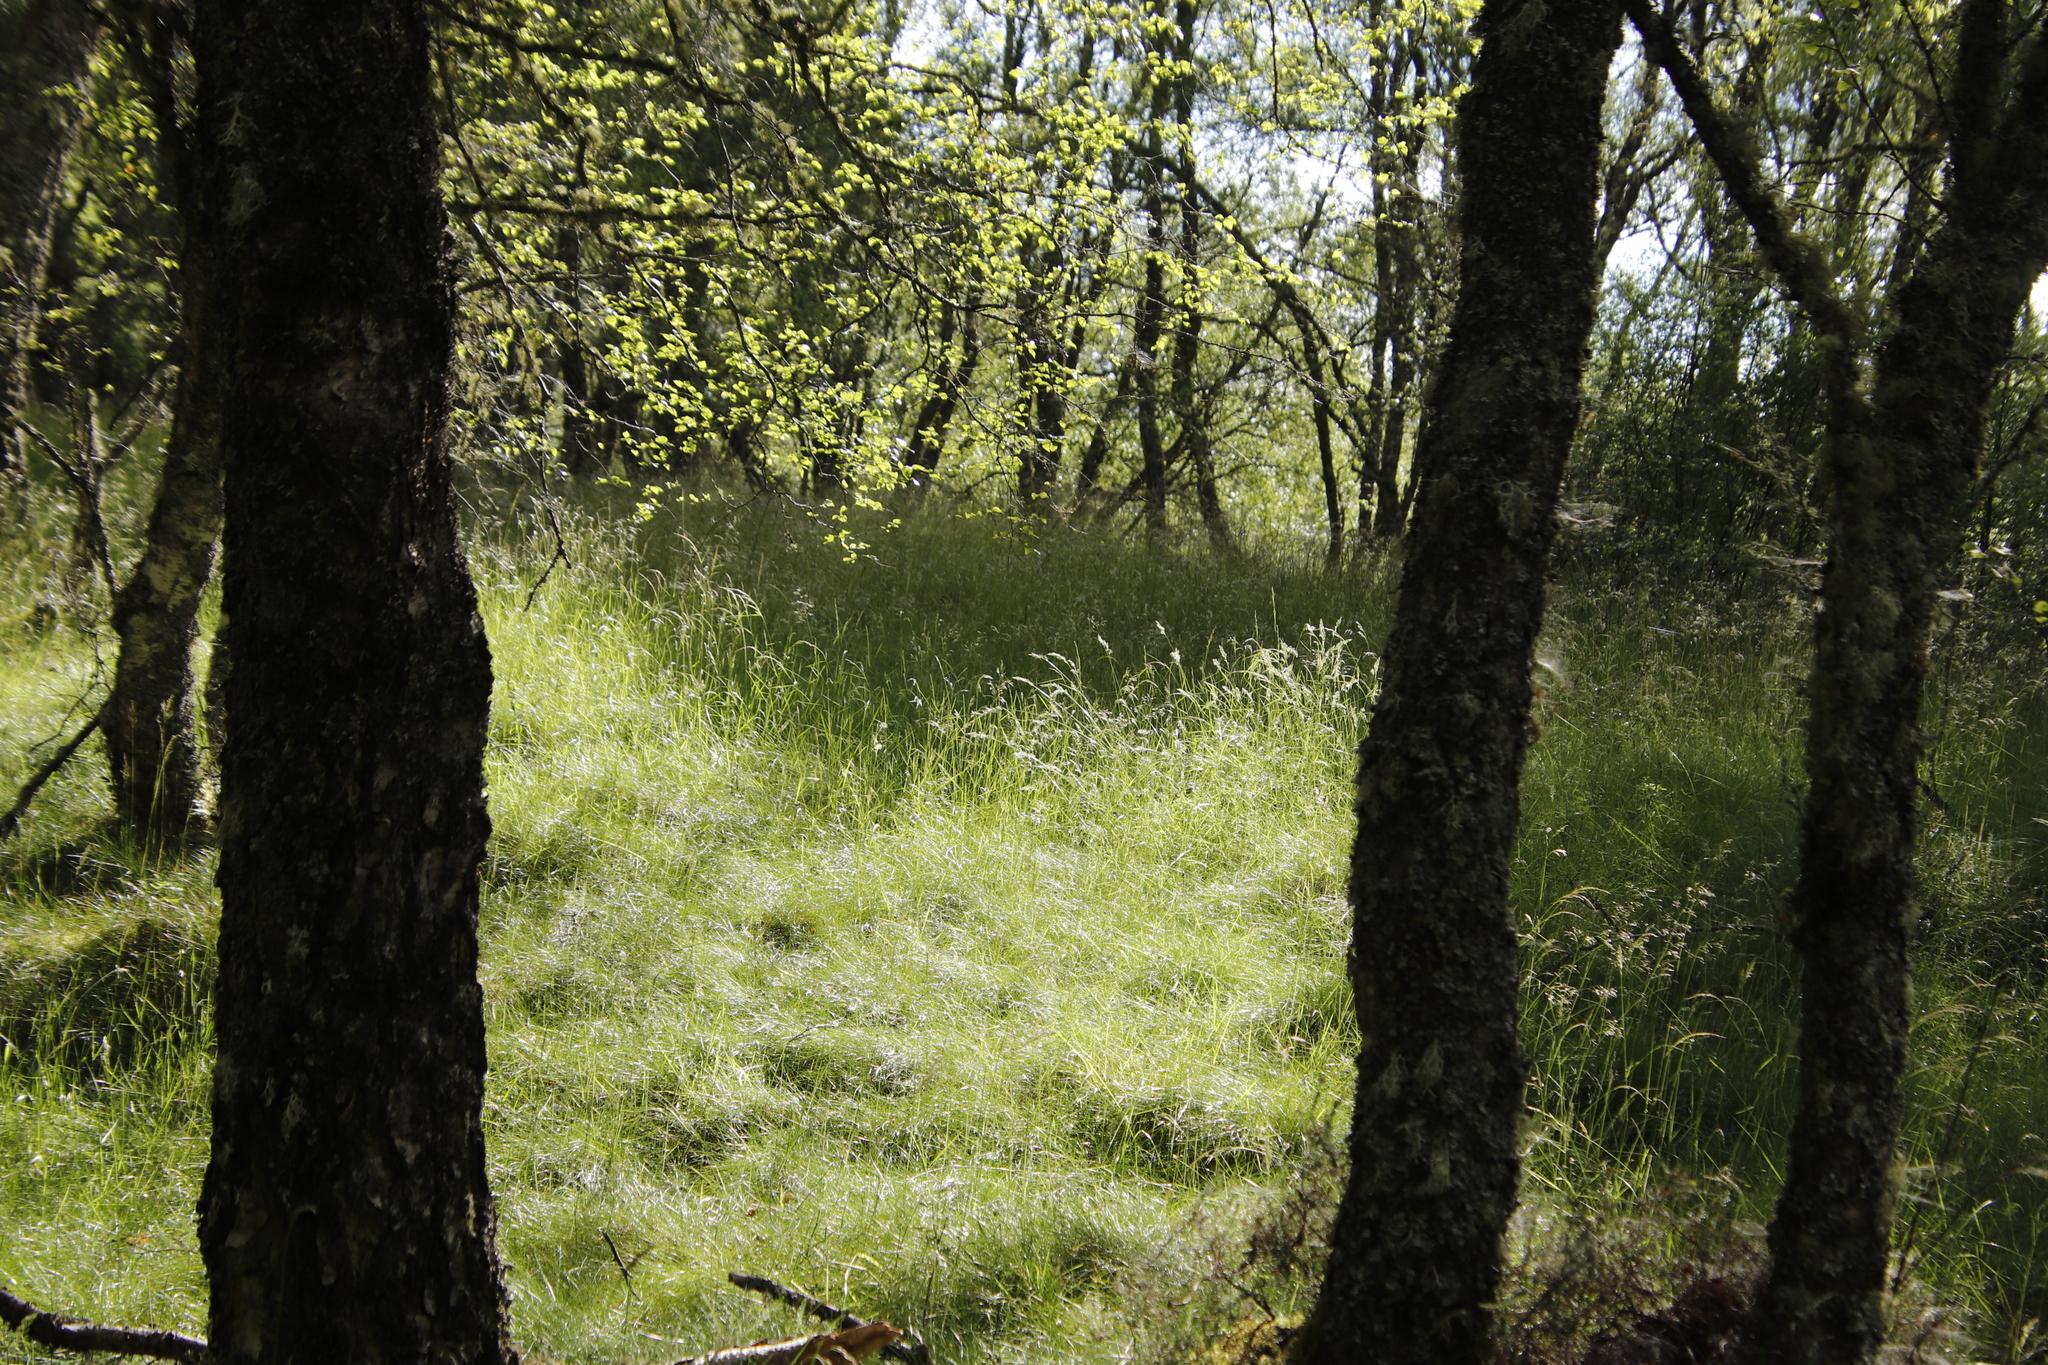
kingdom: Plantae
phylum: Tracheophyta
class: Liliopsida
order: Poales
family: Poaceae
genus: Avenella
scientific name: Avenella flexuosa
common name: Wavy hairgrass
